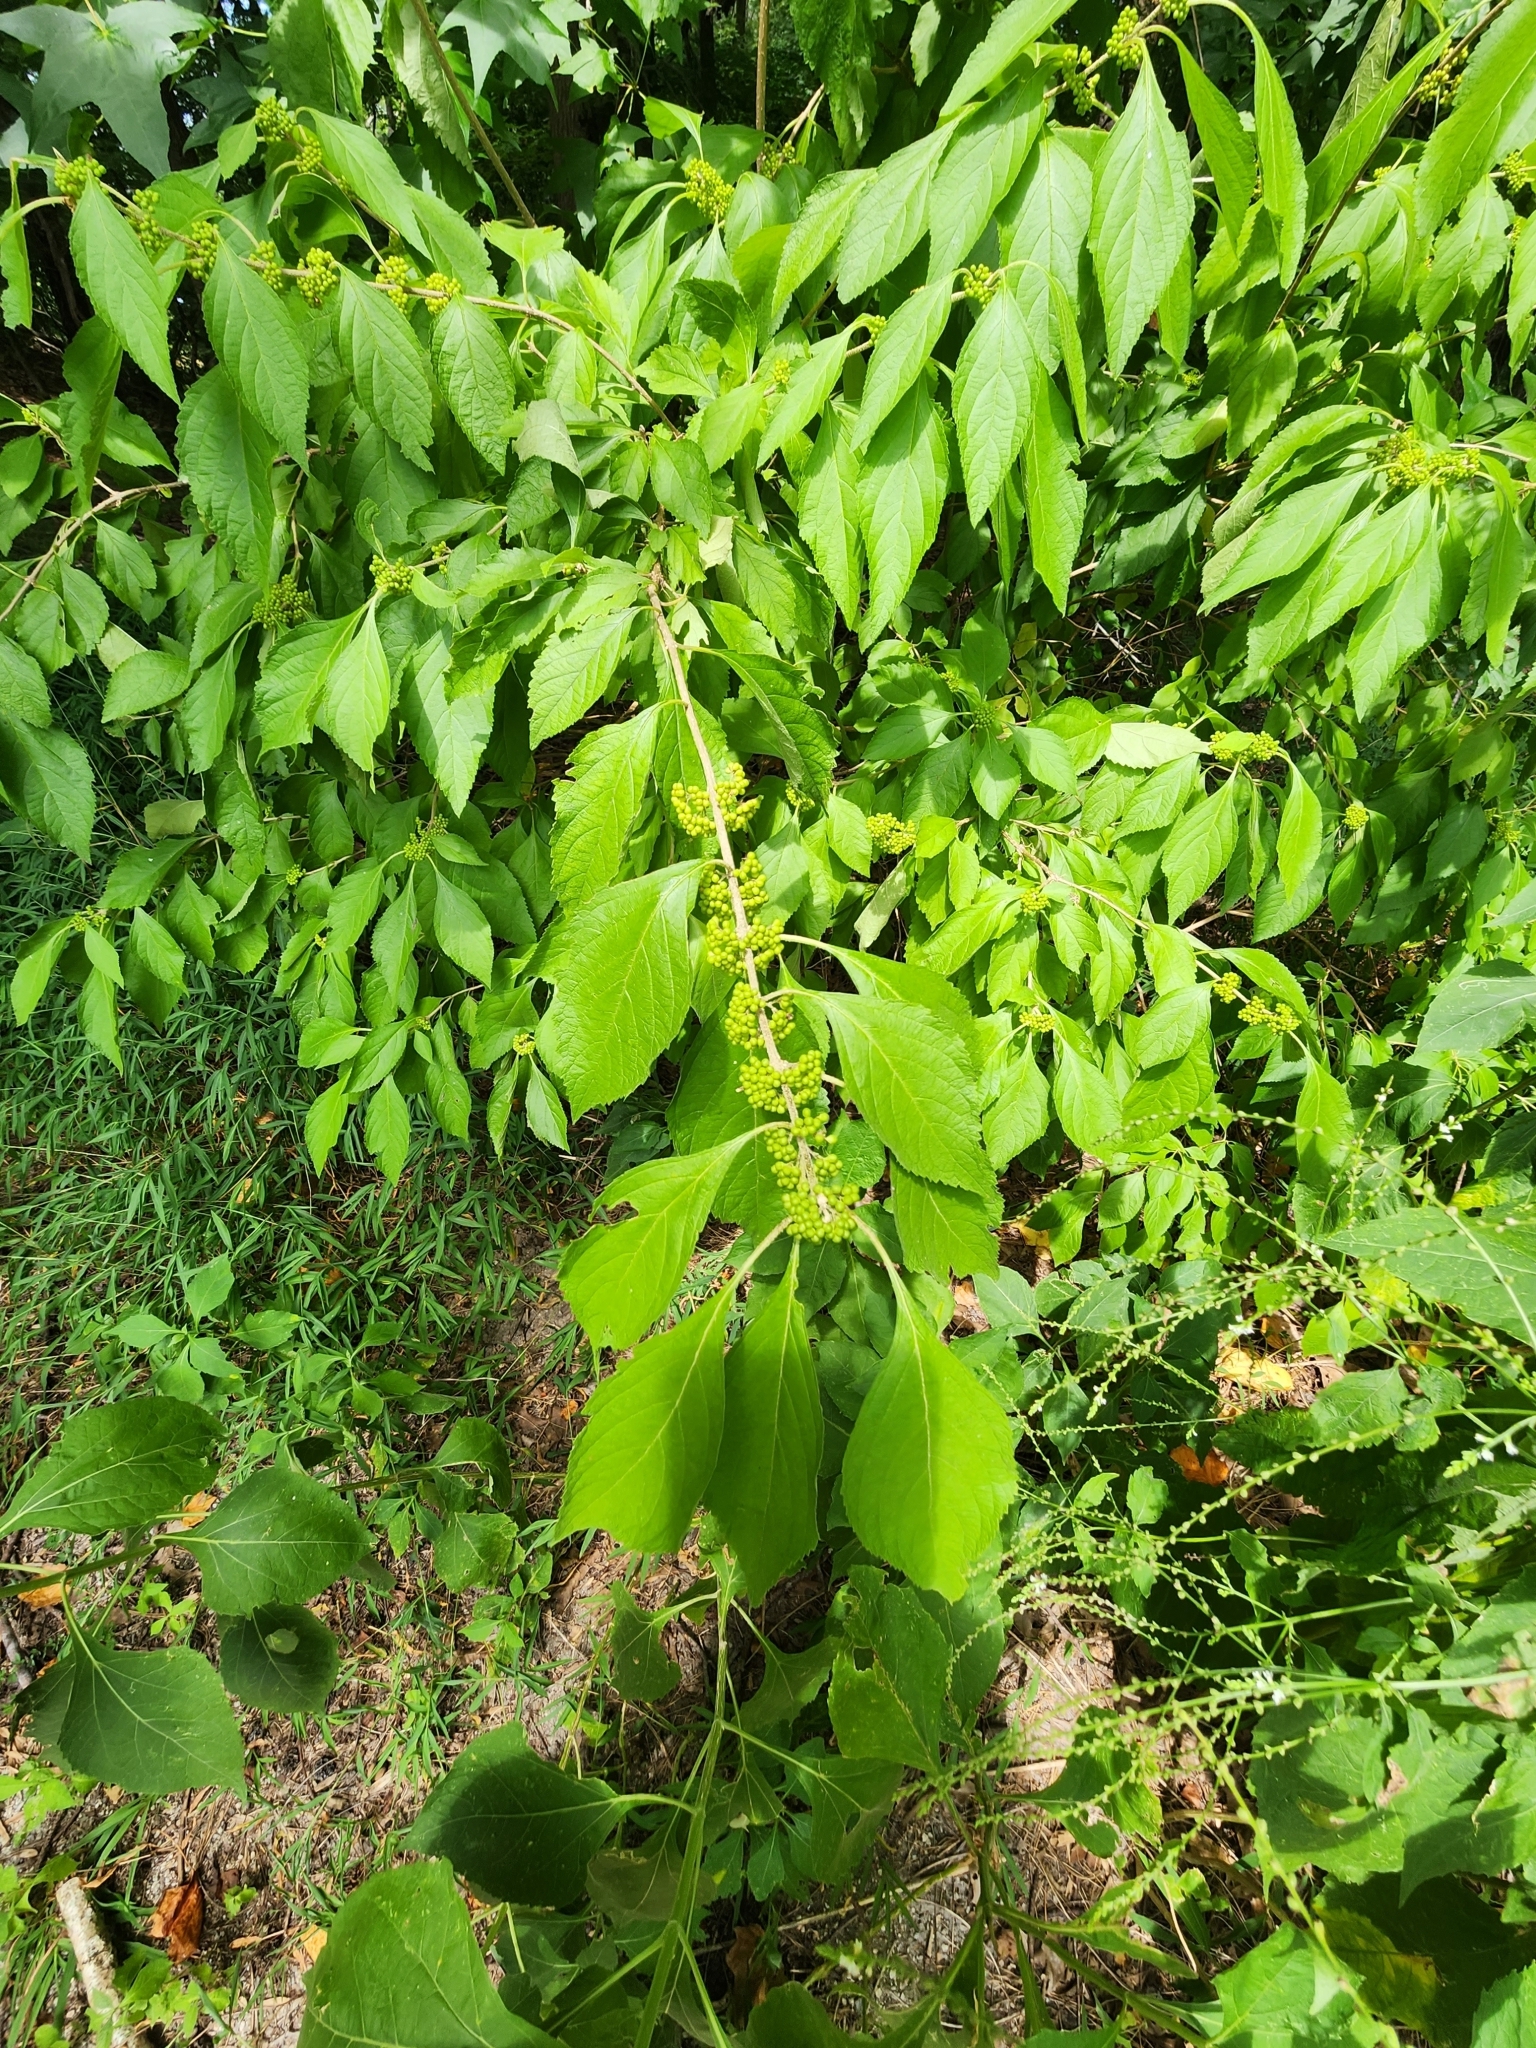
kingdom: Plantae
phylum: Tracheophyta
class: Magnoliopsida
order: Lamiales
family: Lamiaceae
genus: Callicarpa
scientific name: Callicarpa americana
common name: American beautyberry
